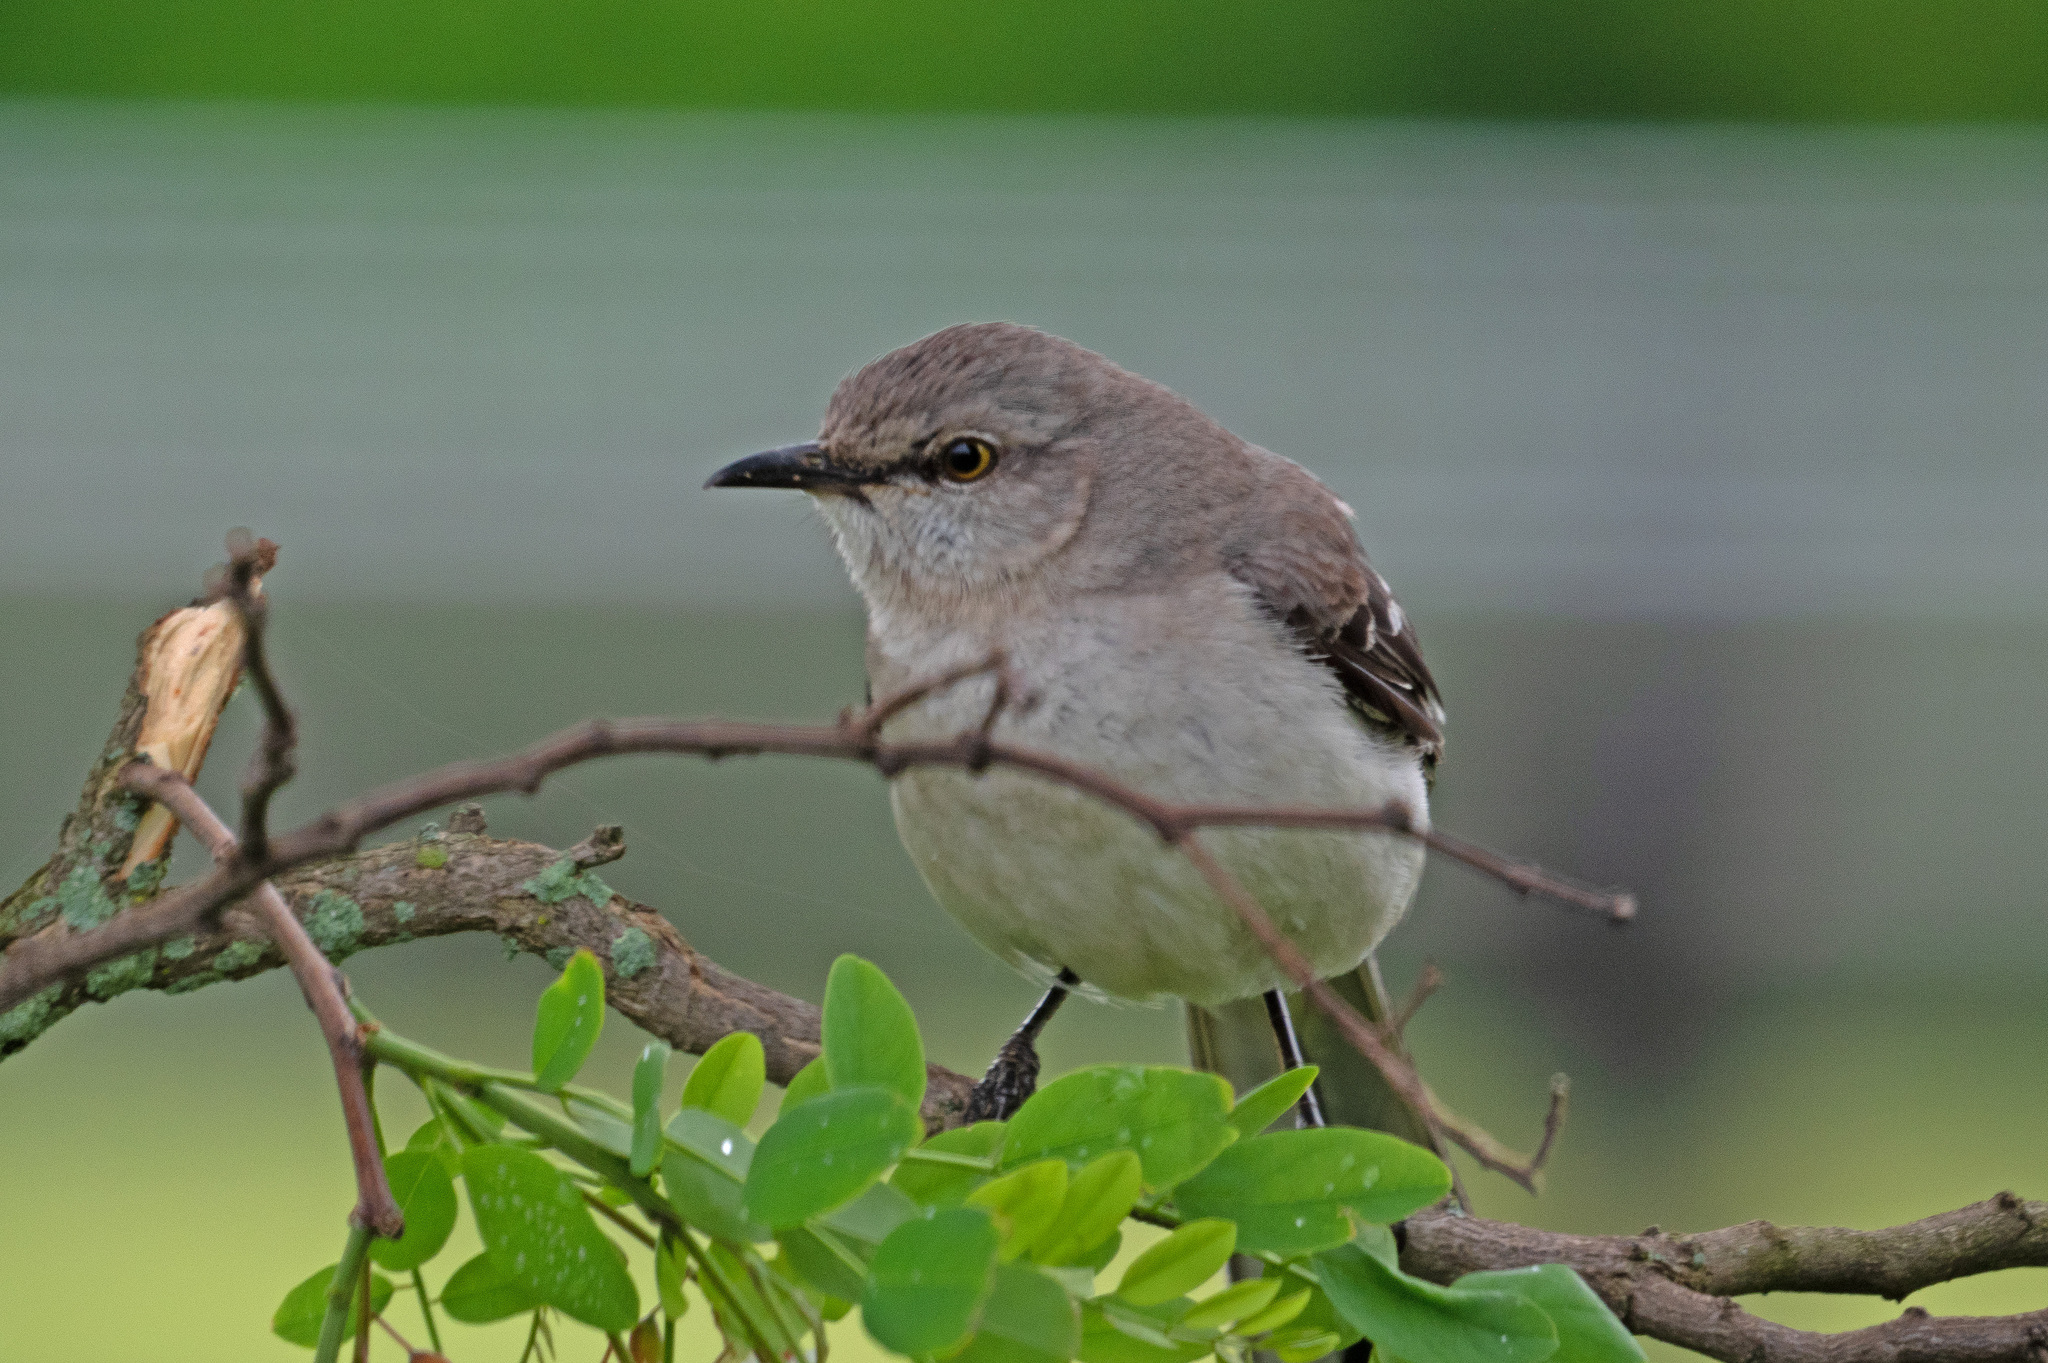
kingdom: Animalia
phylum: Chordata
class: Aves
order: Passeriformes
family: Mimidae
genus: Mimus
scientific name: Mimus polyglottos
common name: Northern mockingbird
